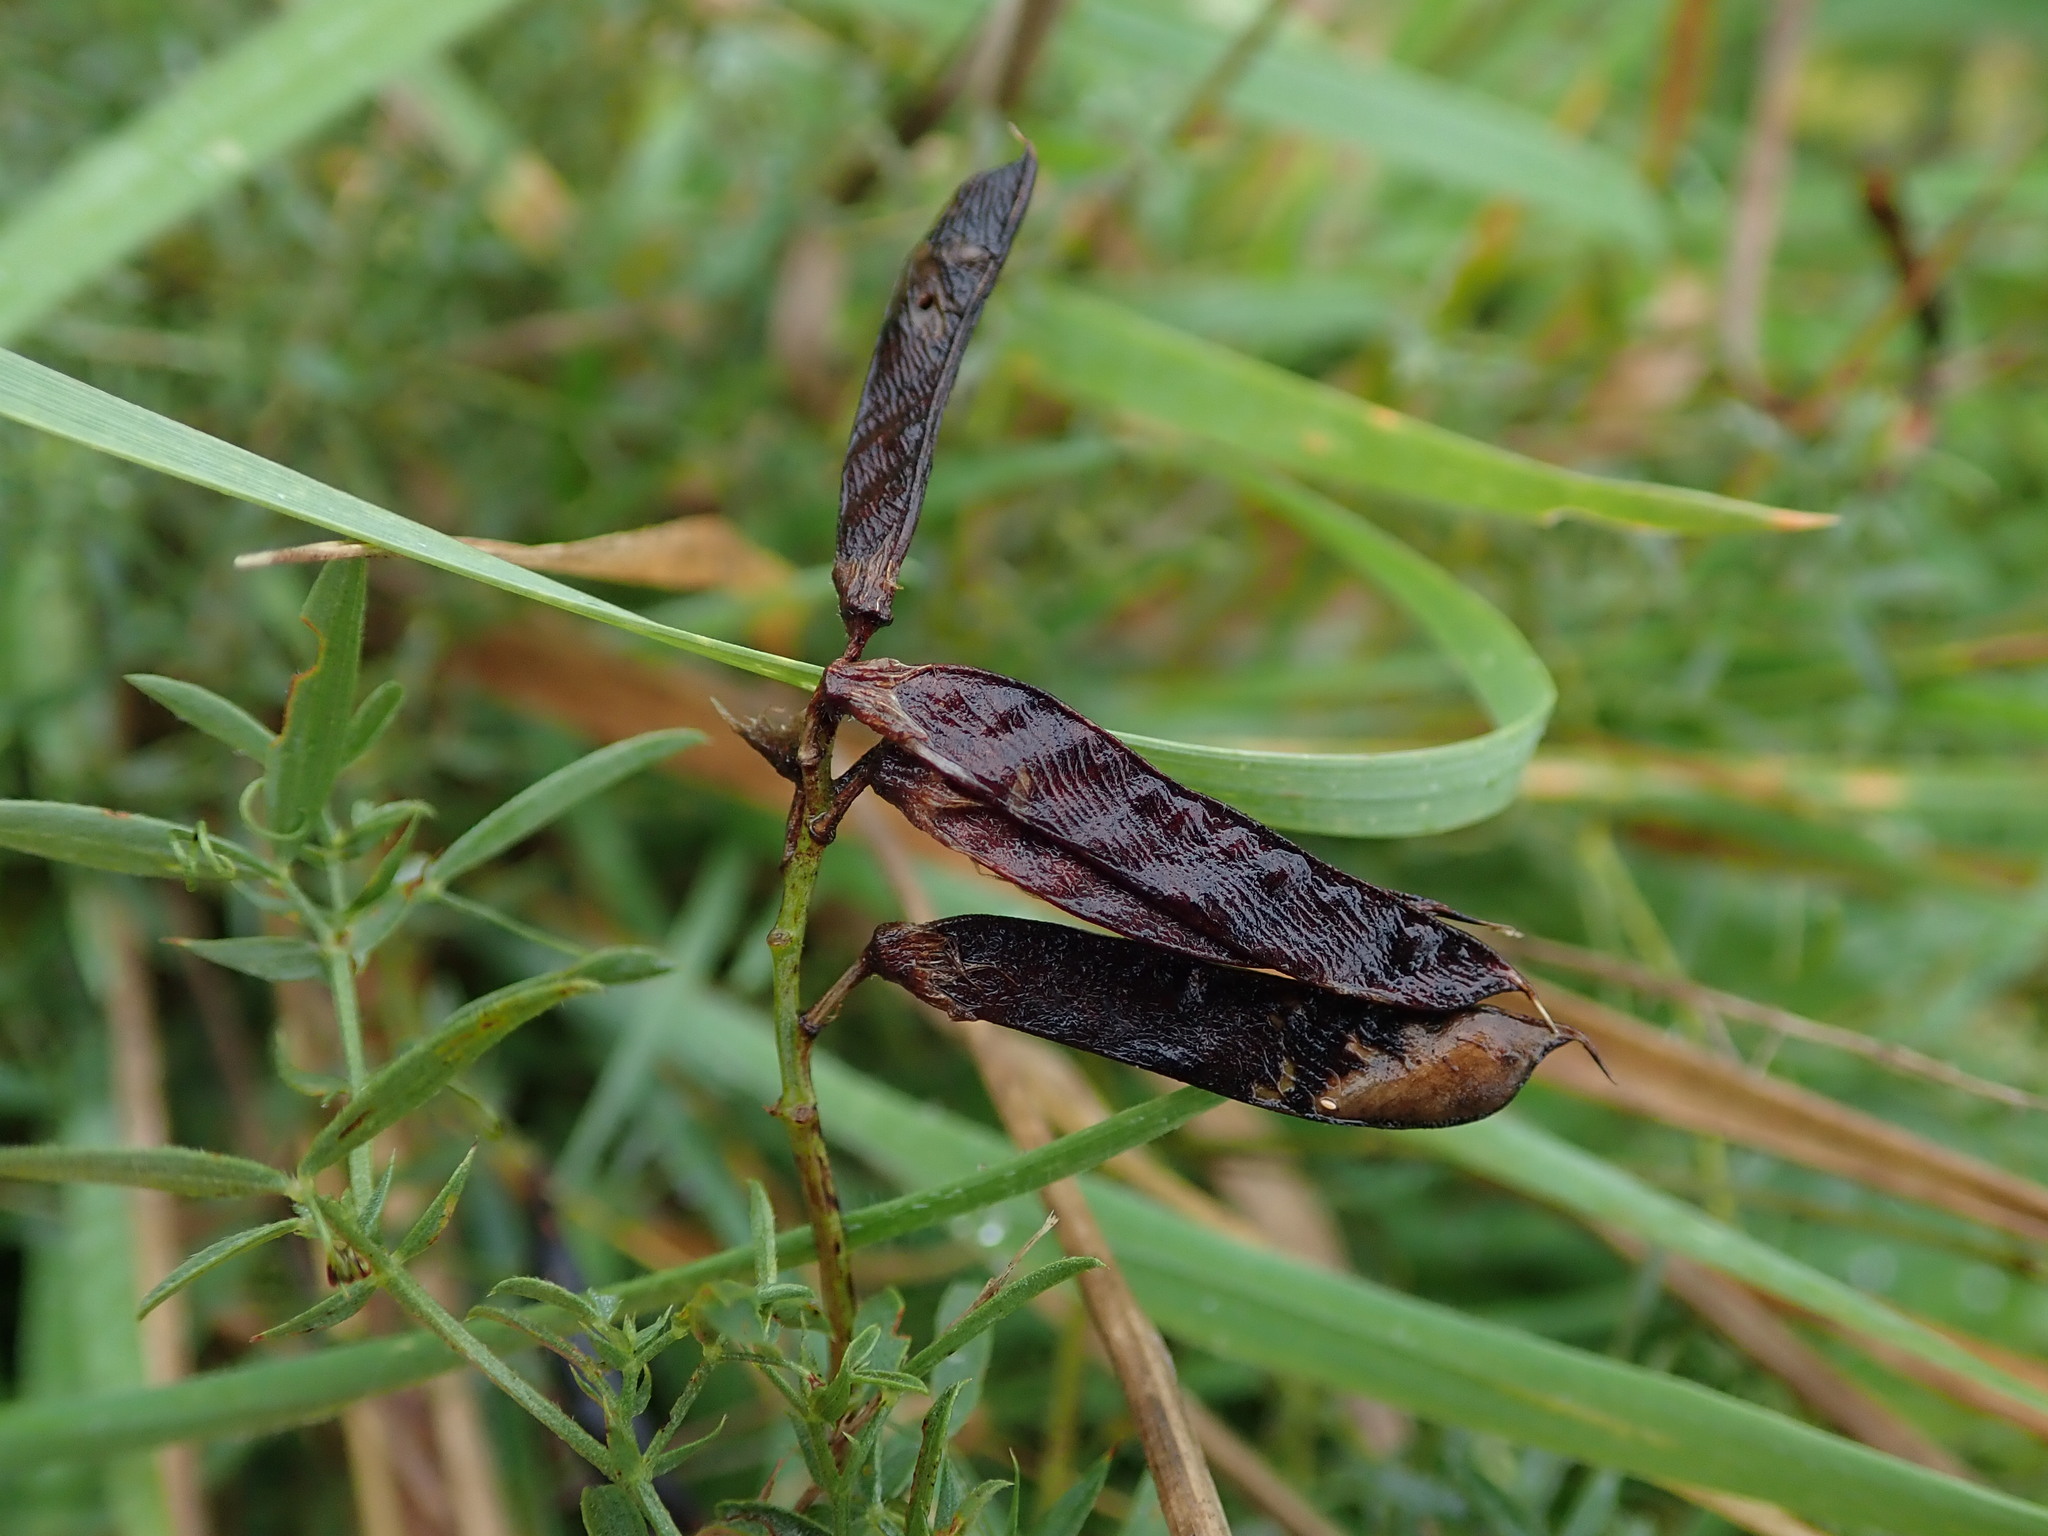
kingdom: Plantae
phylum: Tracheophyta
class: Magnoliopsida
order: Fabales
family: Fabaceae
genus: Vicia
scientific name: Vicia cracca
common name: Bird vetch
